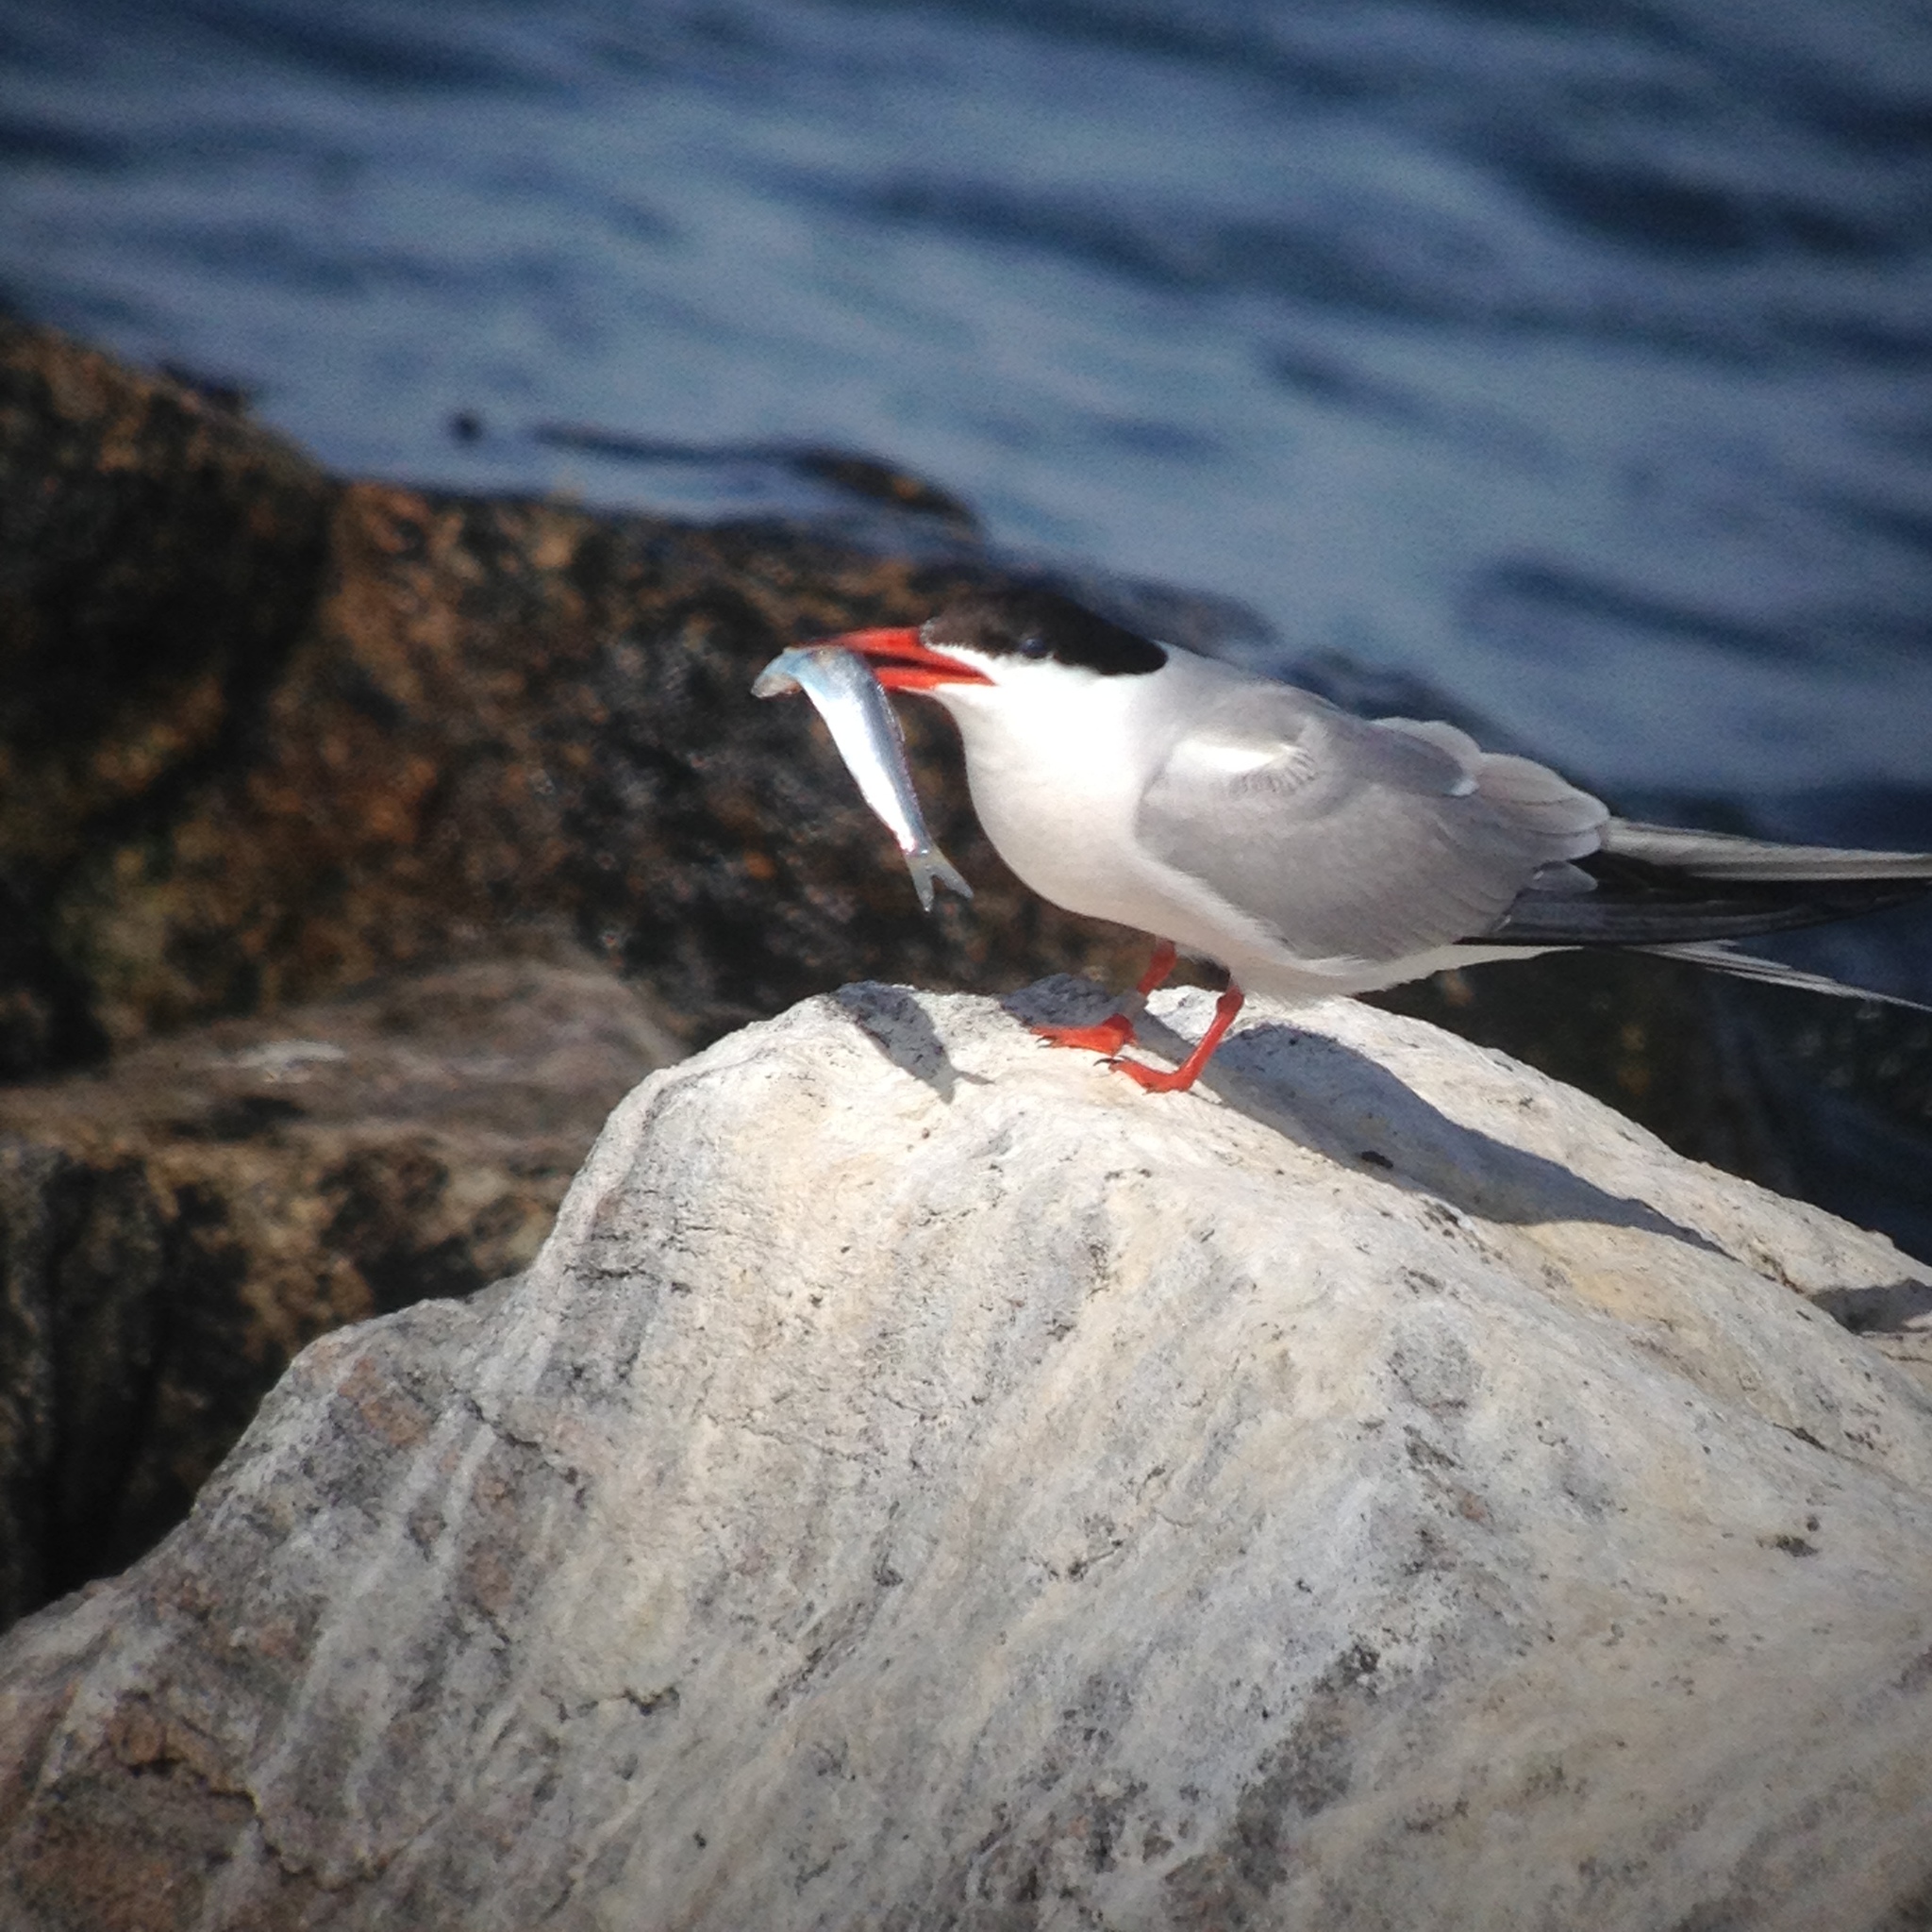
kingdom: Animalia
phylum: Chordata
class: Aves
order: Charadriiformes
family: Laridae
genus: Sterna
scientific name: Sterna hirundo
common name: Common tern
